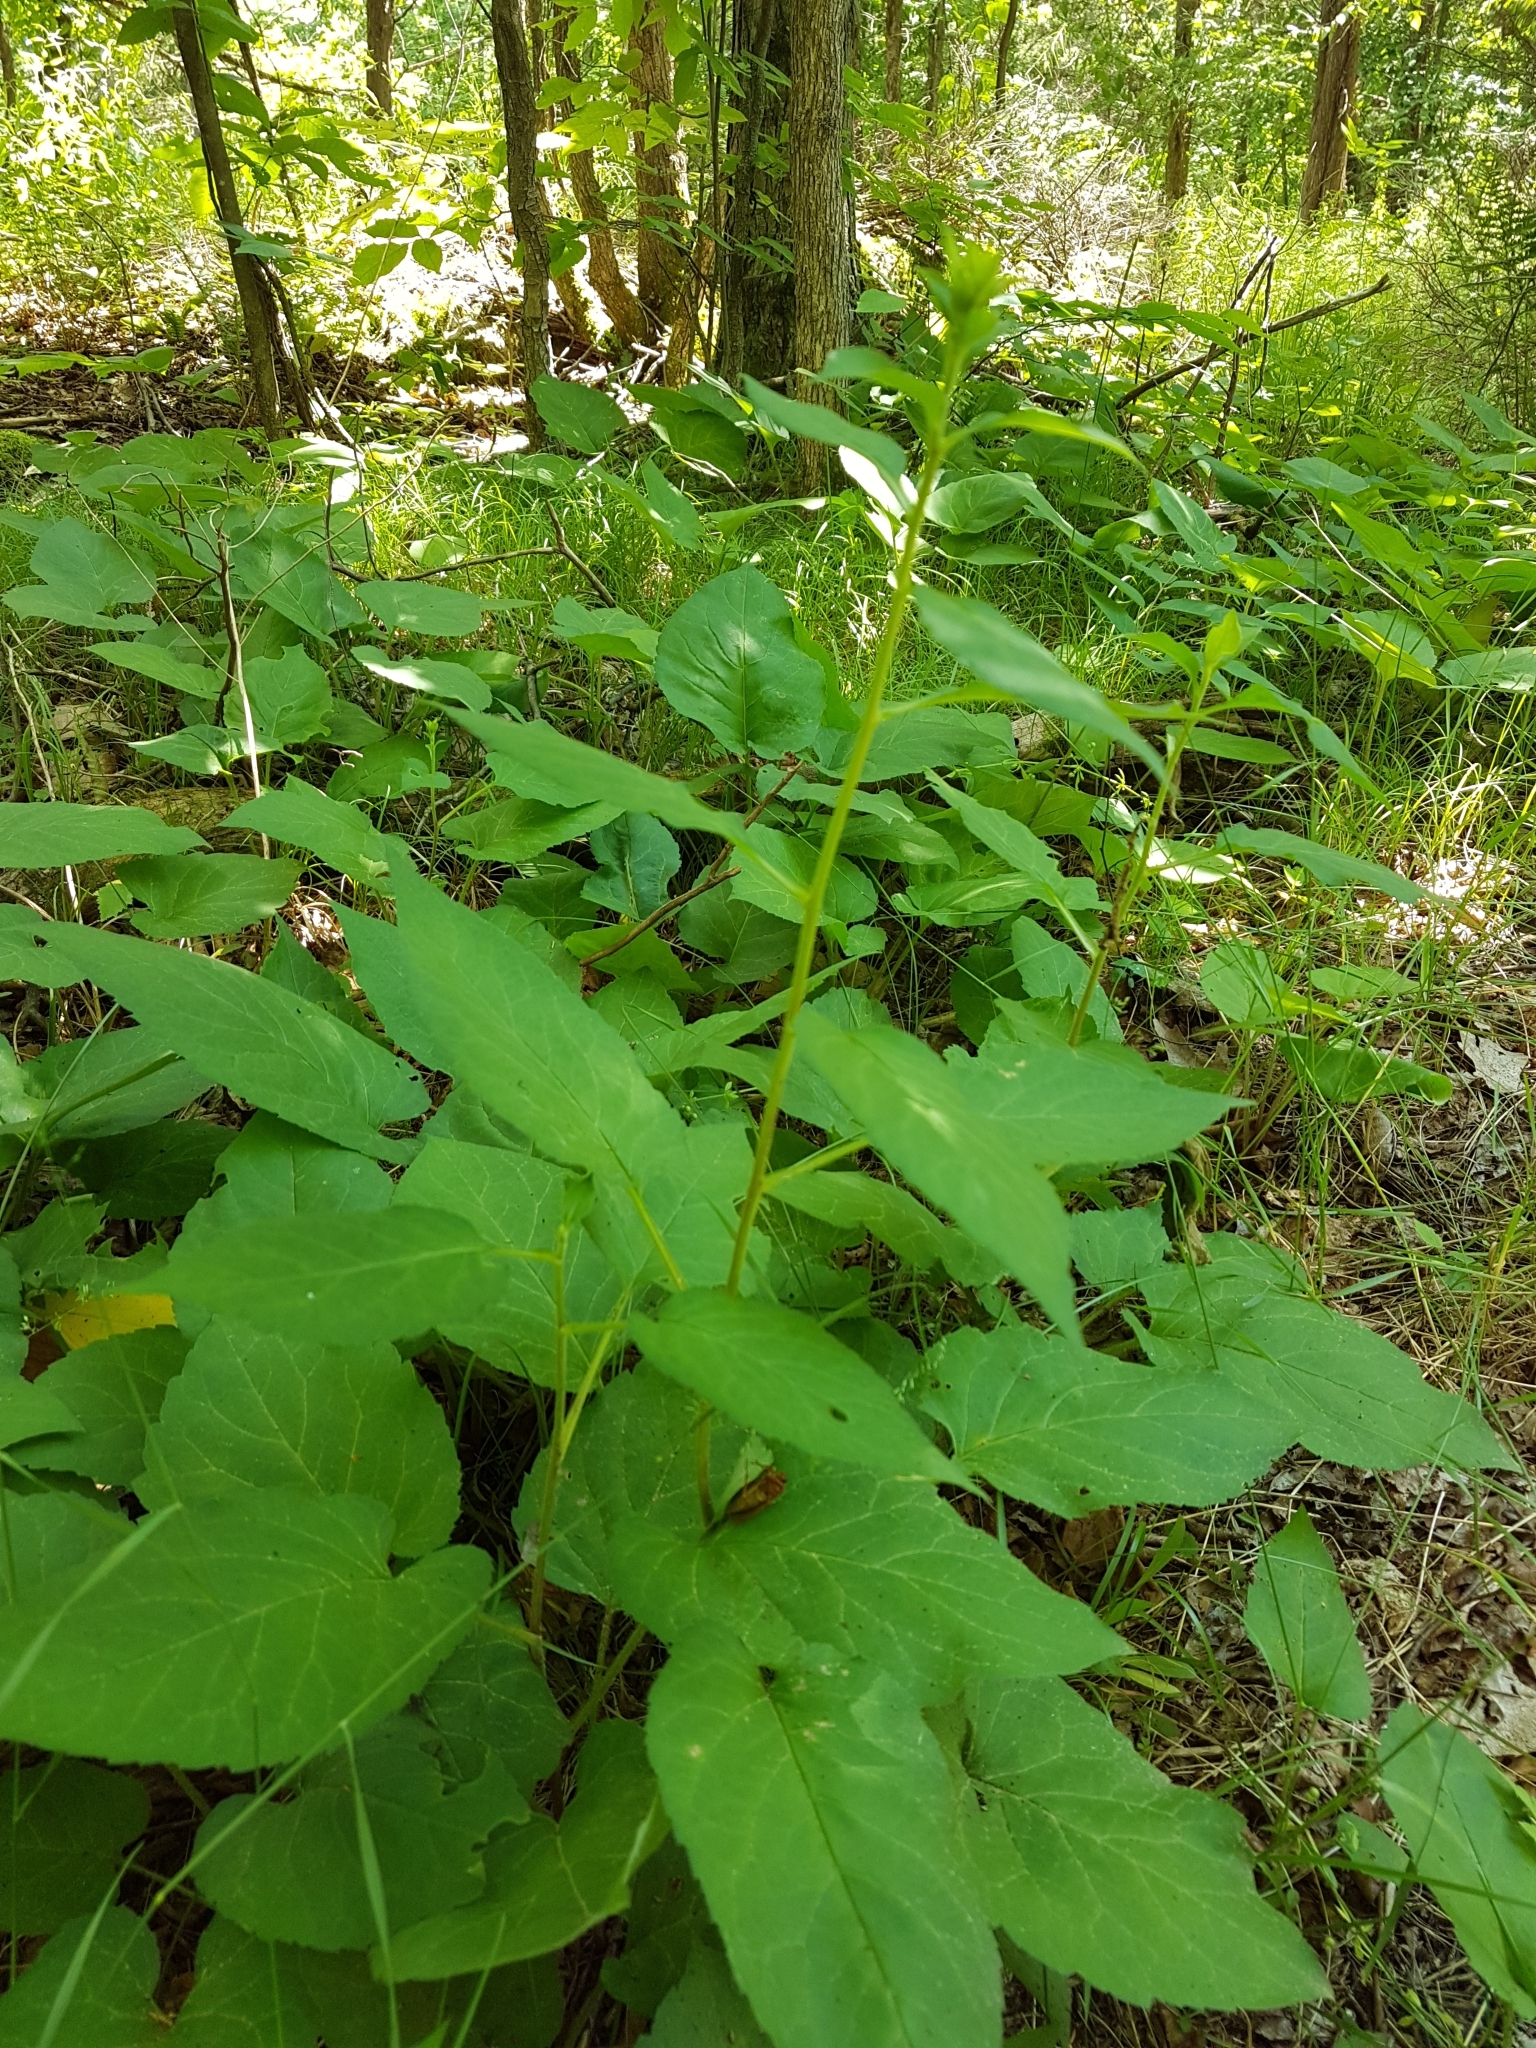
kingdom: Plantae
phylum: Tracheophyta
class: Magnoliopsida
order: Asterales
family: Asteraceae
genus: Eurybia
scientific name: Eurybia macrophylla
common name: Big-leaved aster
